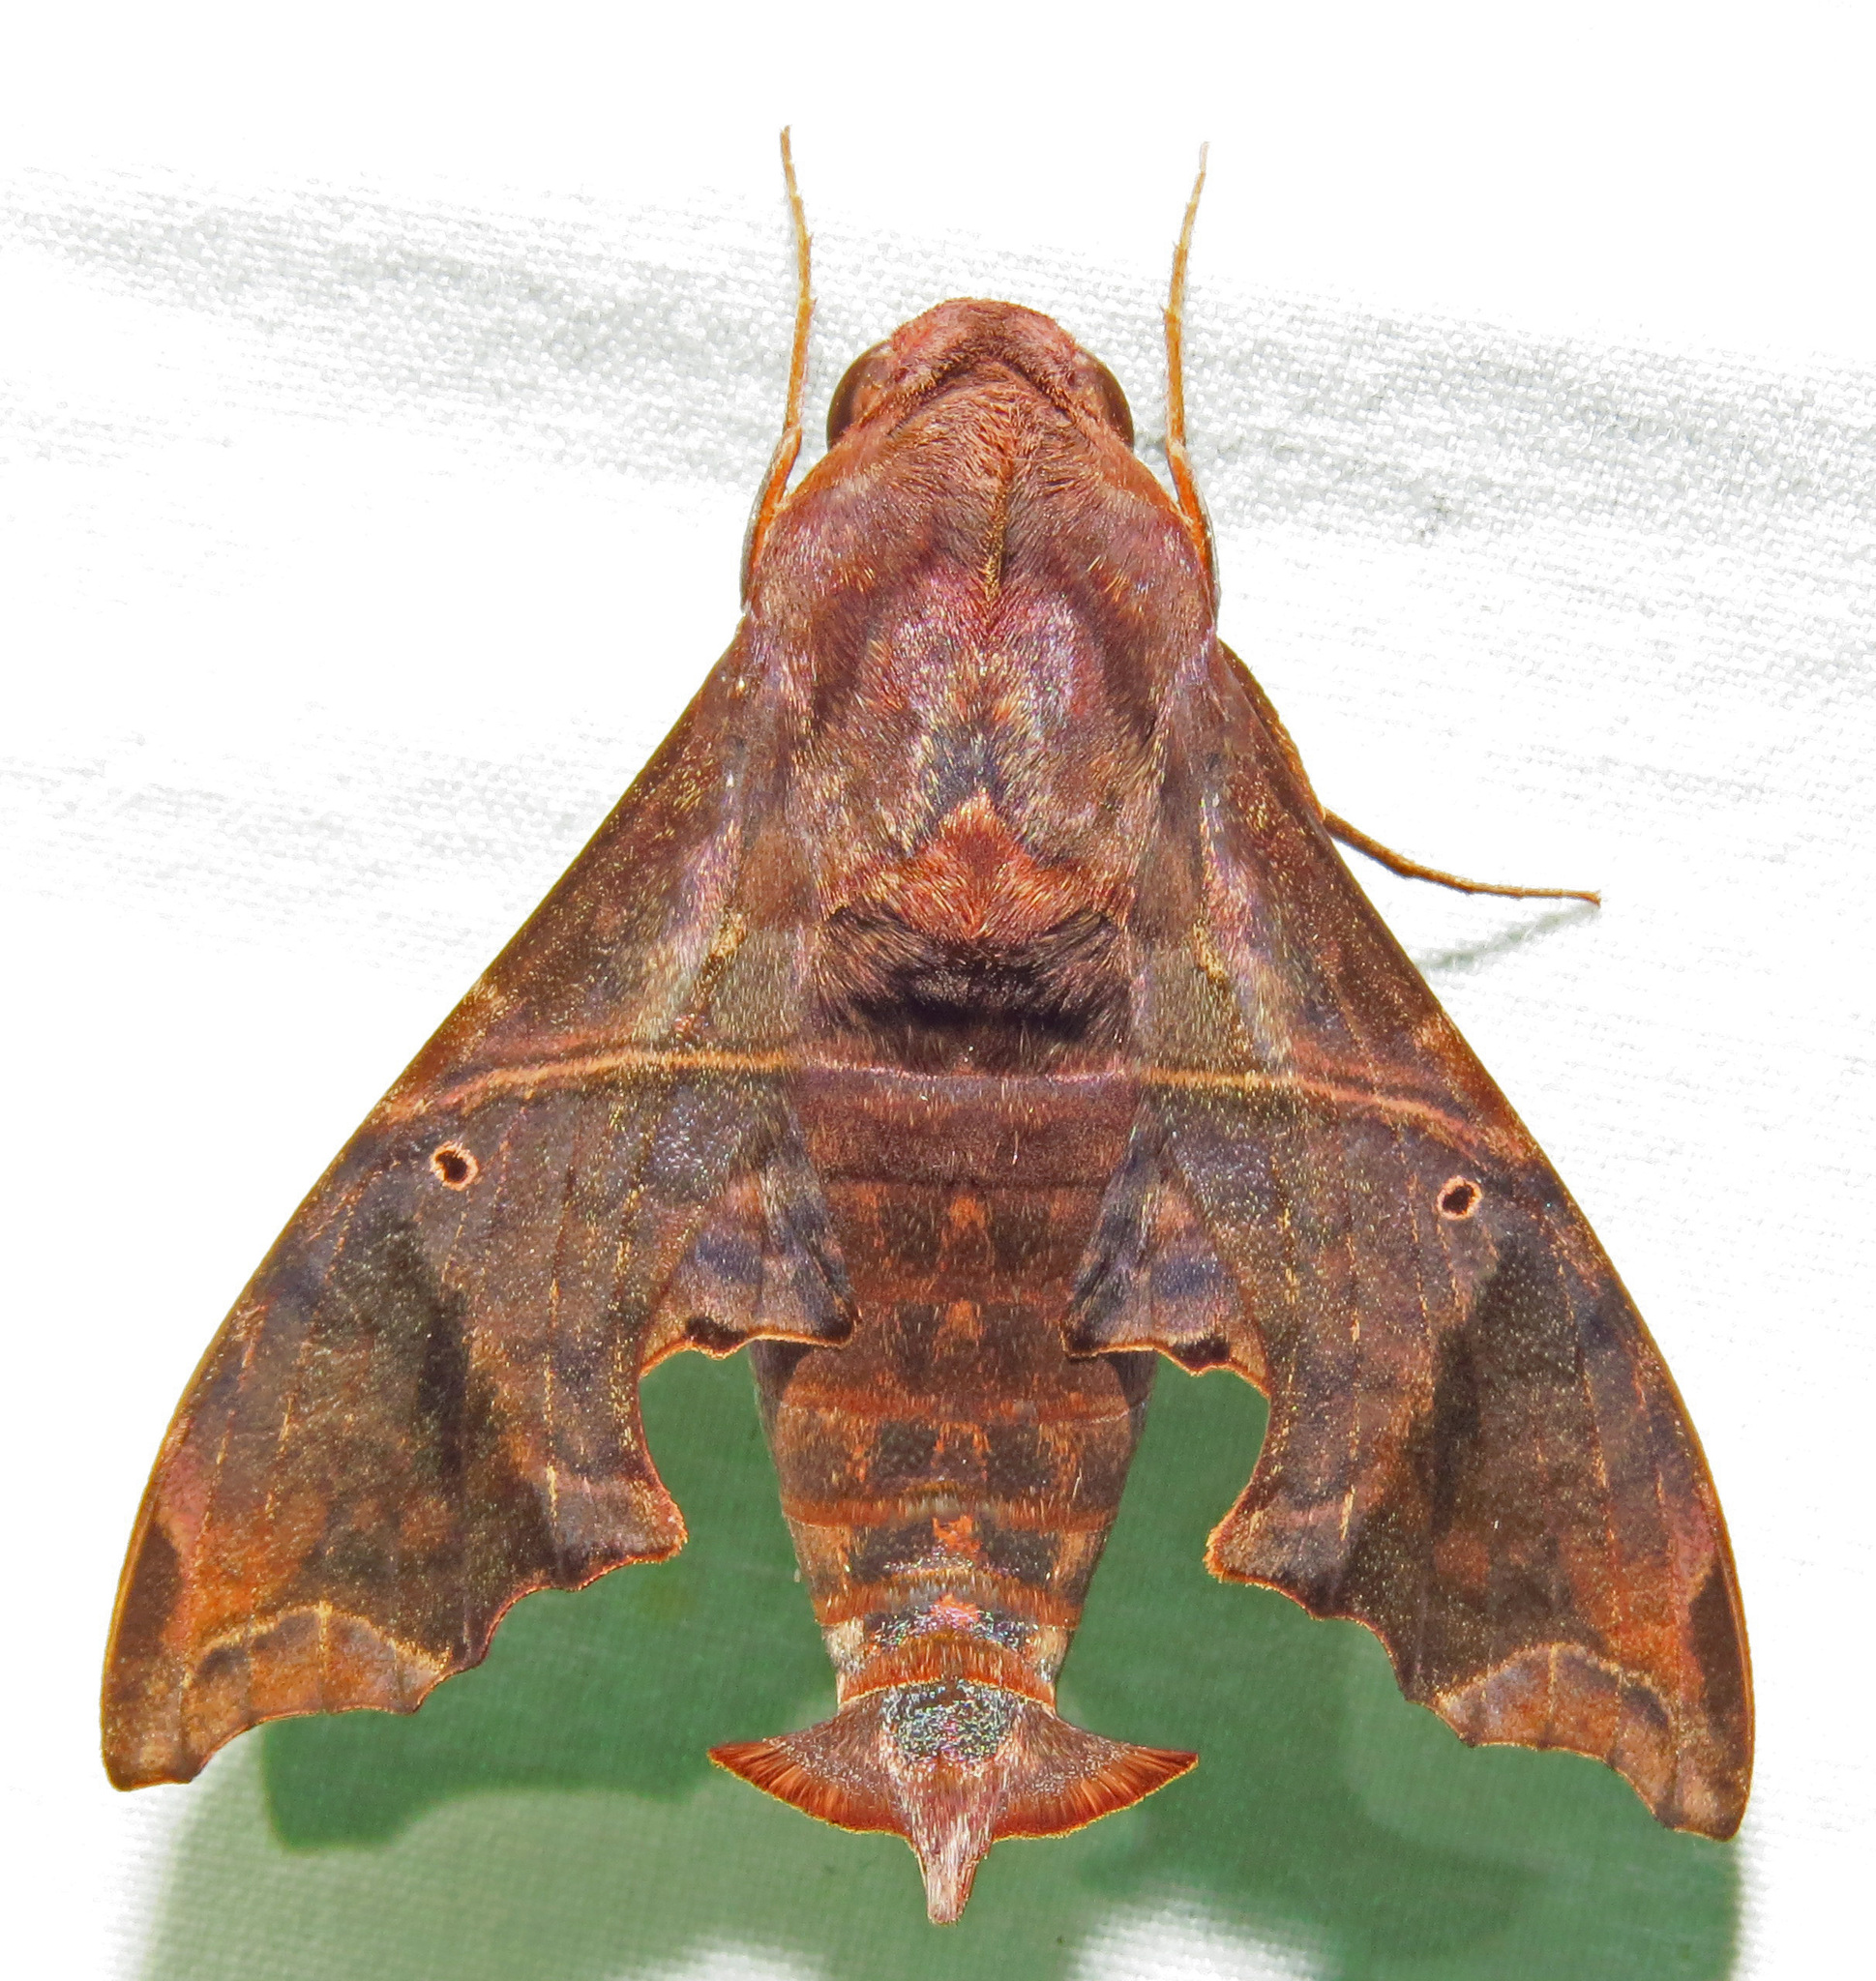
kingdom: Animalia
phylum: Arthropoda
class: Insecta
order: Lepidoptera
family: Sphingidae
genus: Enyo
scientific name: Enyo lugubris
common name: Mournful sphinx
